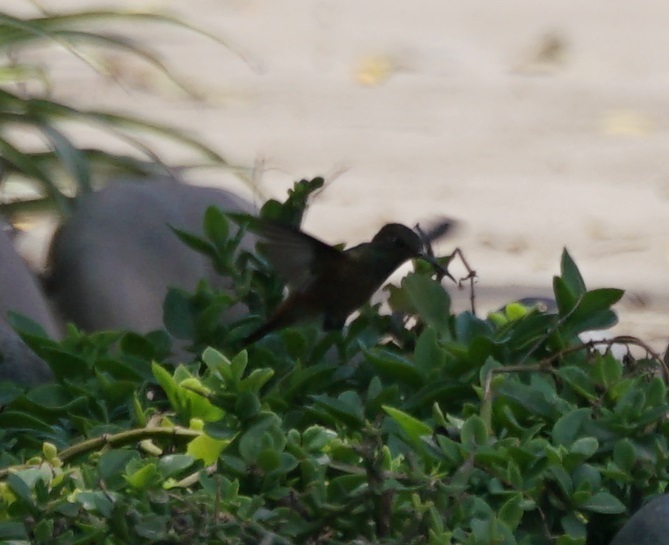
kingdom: Animalia
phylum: Chordata
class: Aves
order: Apodiformes
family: Trochilidae
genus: Amazilis
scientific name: Amazilis amazilia
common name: Amazilia hummingbird
